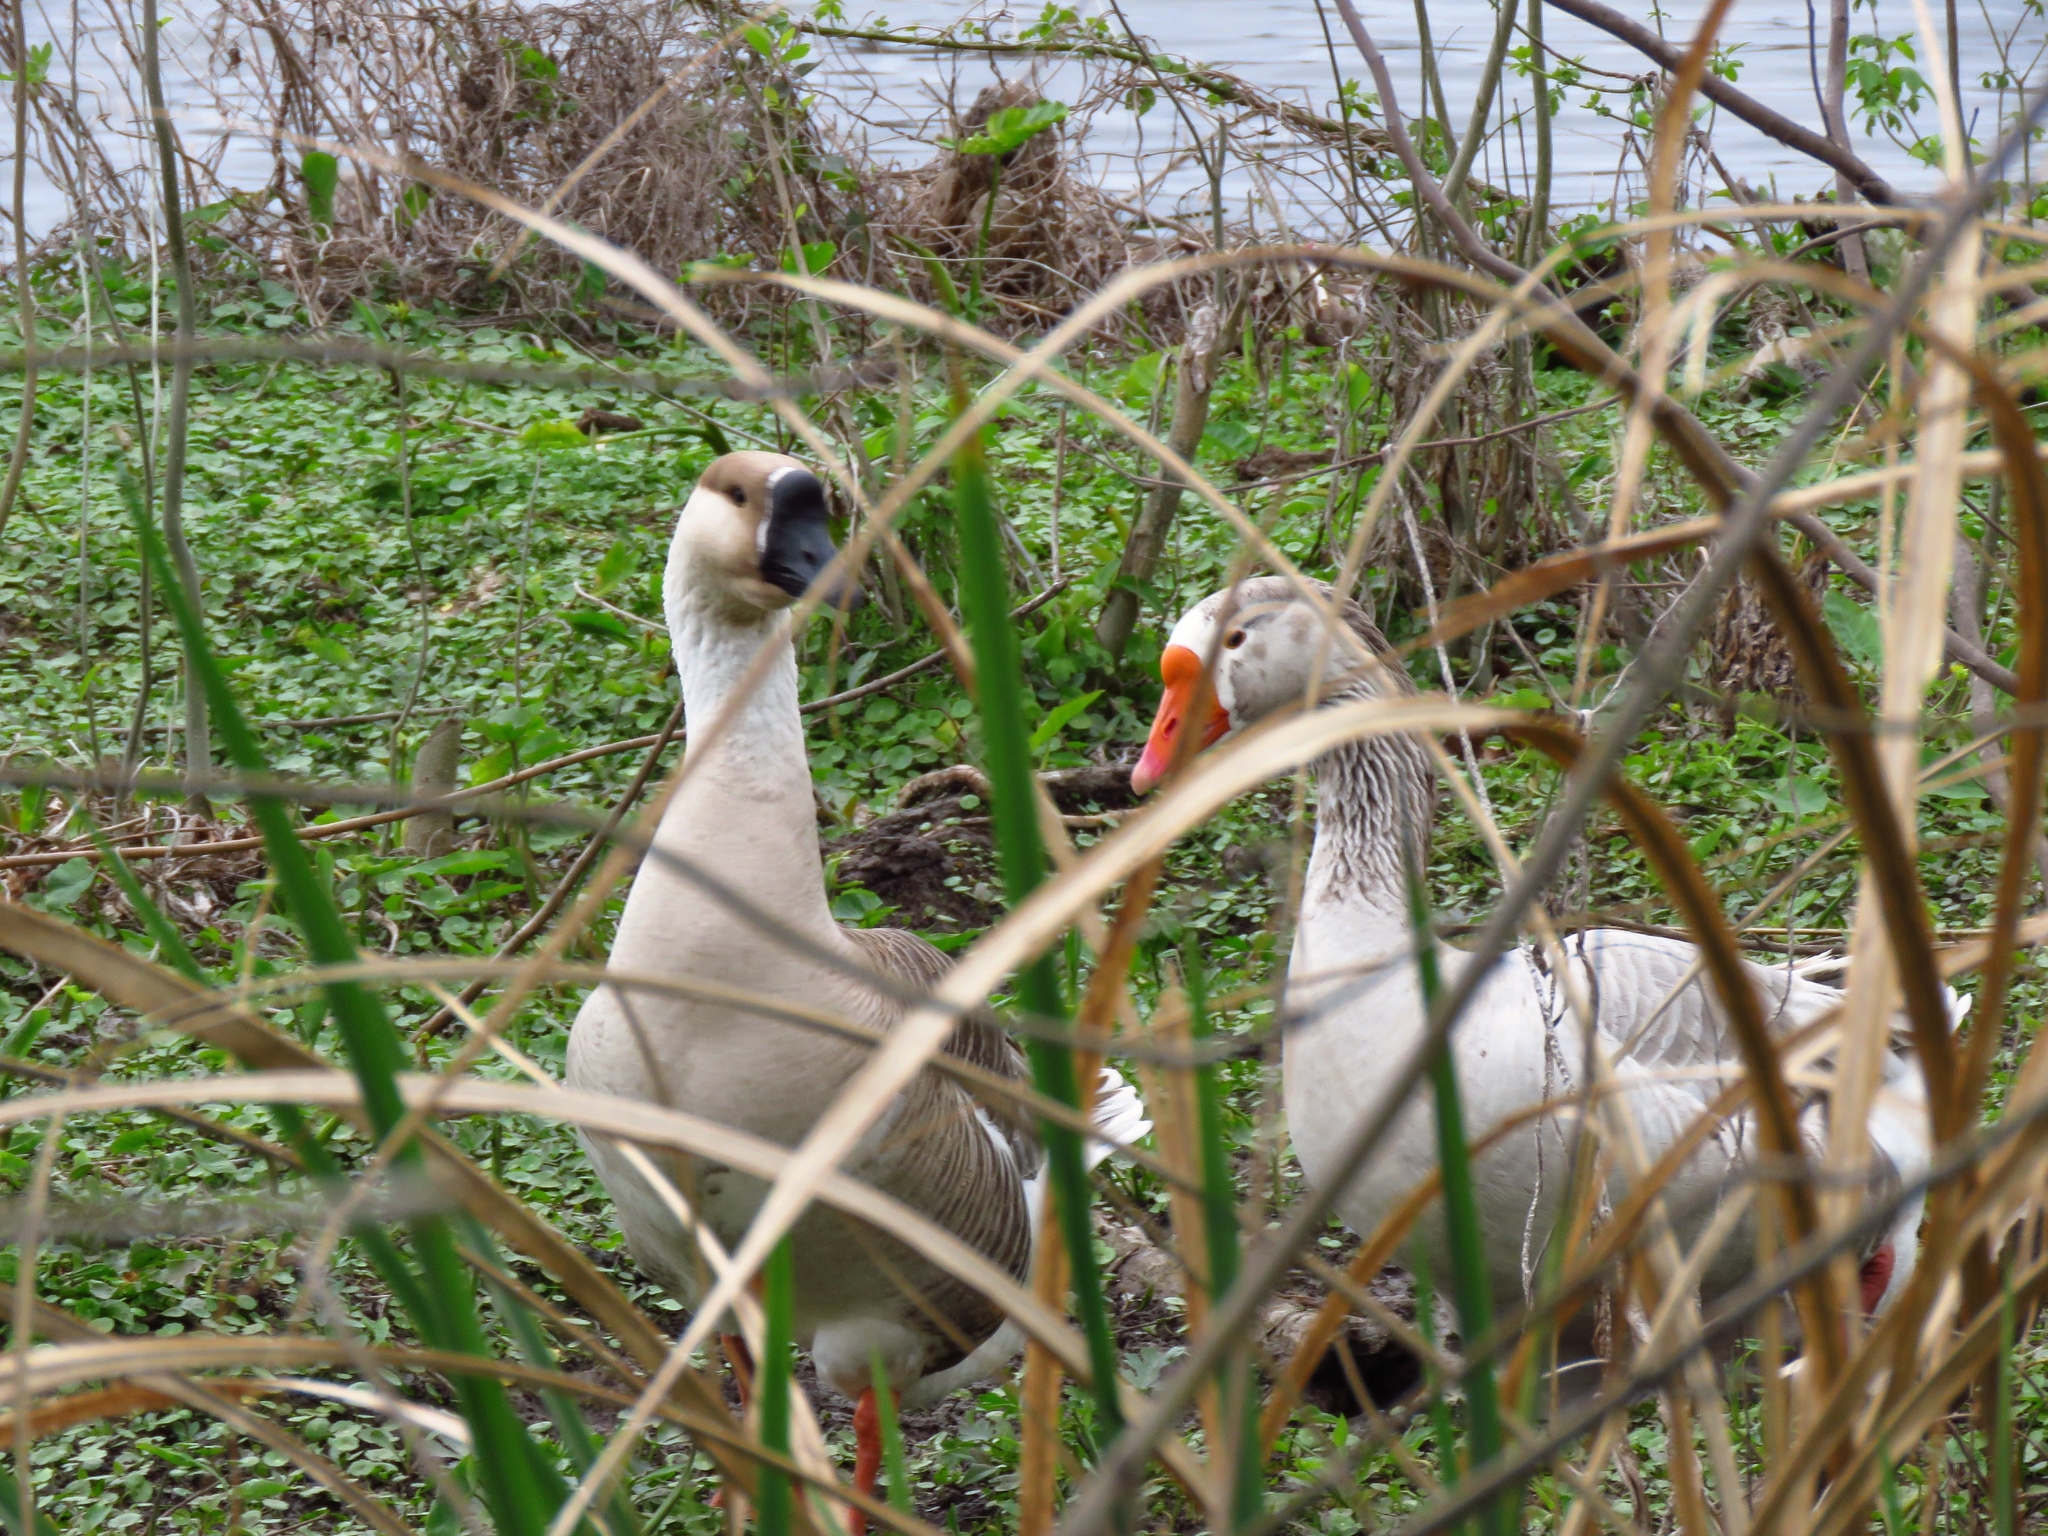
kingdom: Animalia
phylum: Chordata
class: Aves
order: Anseriformes
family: Anatidae
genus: Anser
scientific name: Anser cygnoides
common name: Swan goose
